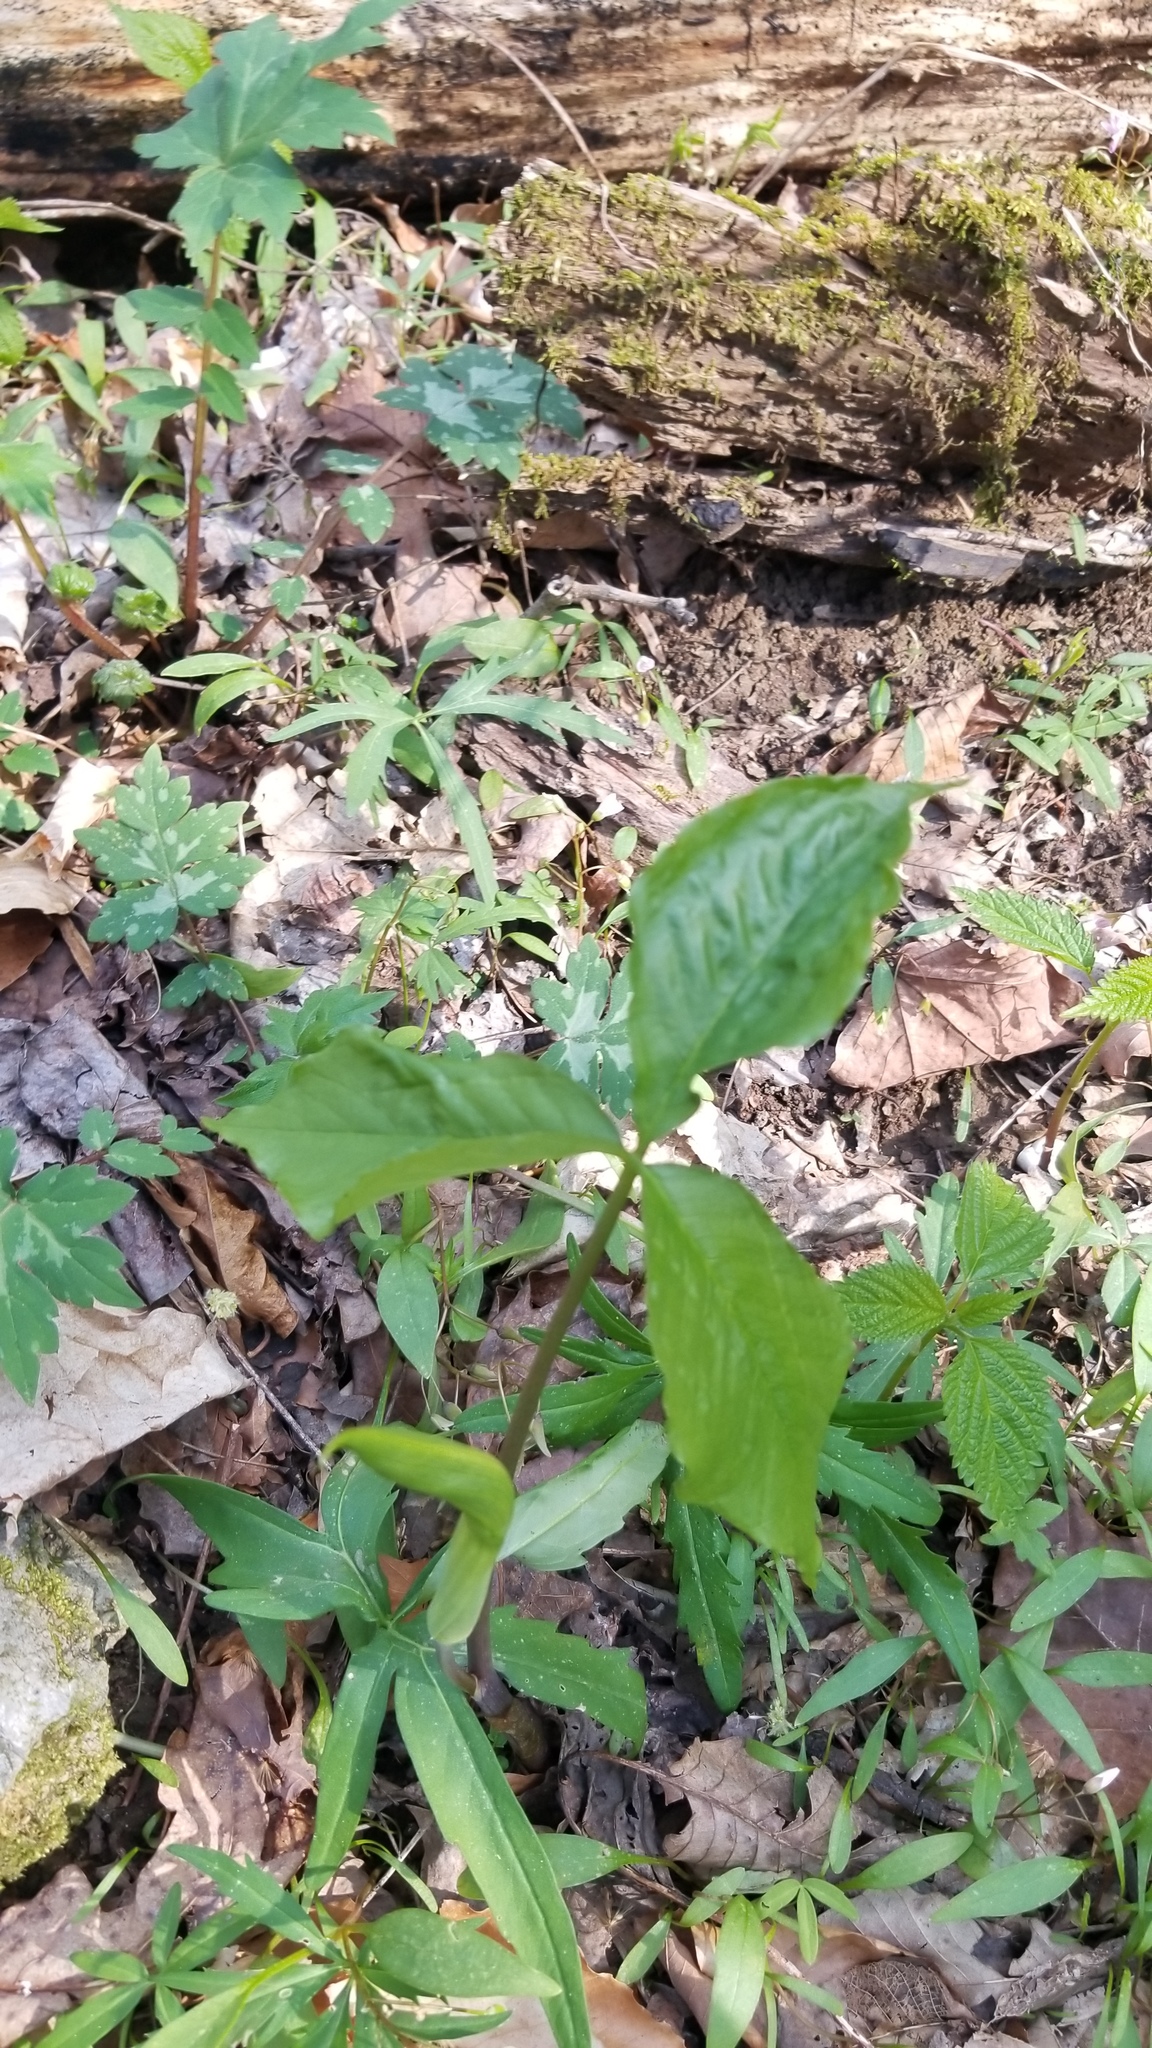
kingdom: Plantae
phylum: Tracheophyta
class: Liliopsida
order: Alismatales
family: Araceae
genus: Arisaema
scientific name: Arisaema triphyllum
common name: Jack-in-the-pulpit
